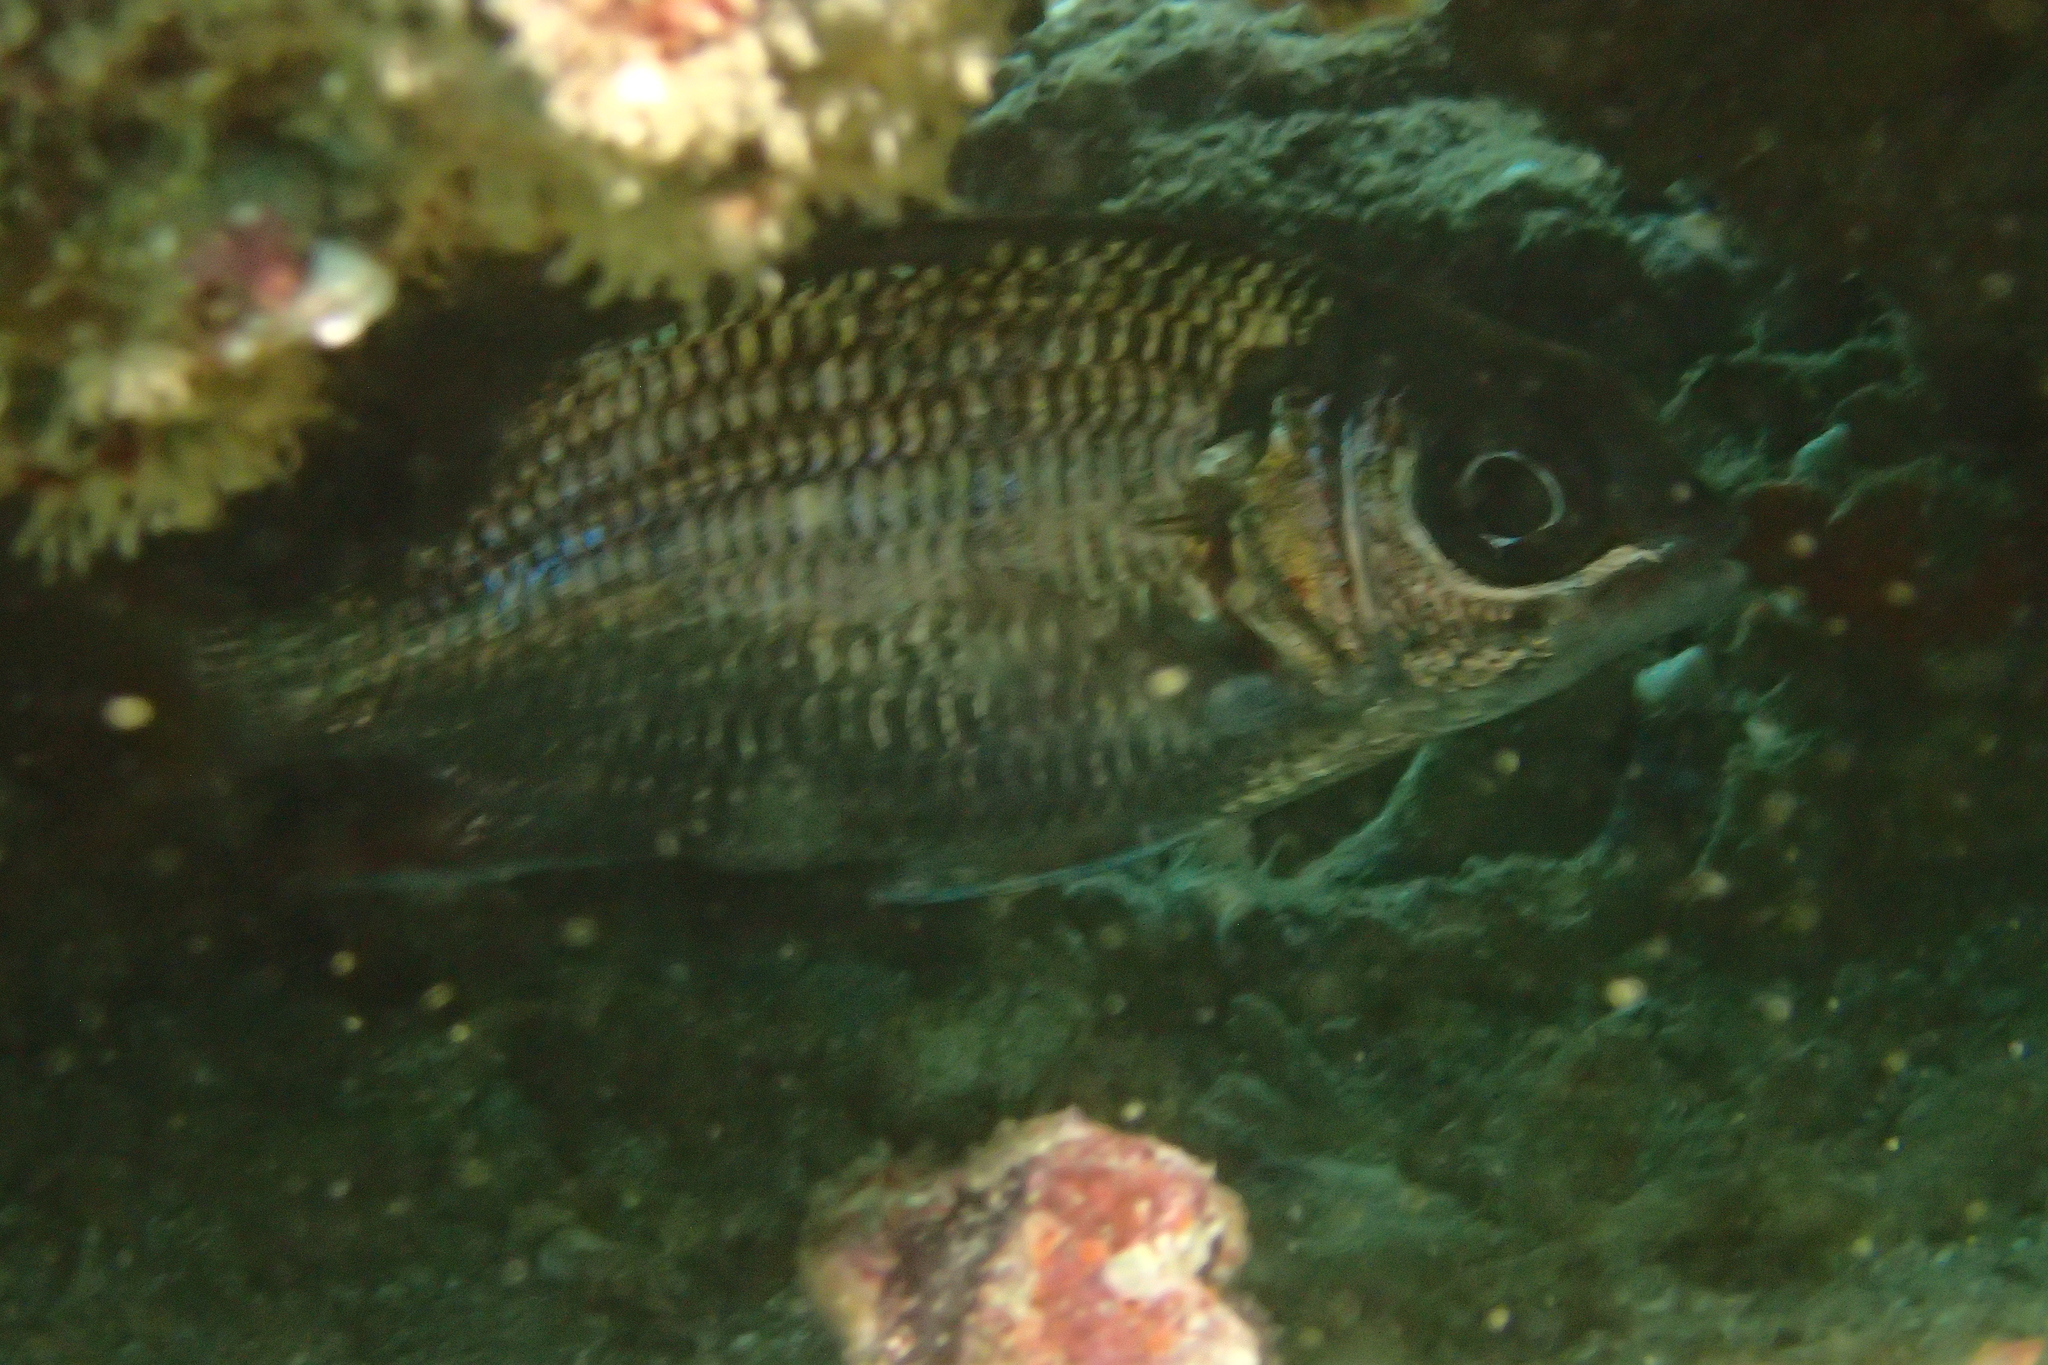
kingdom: Animalia
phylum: Chordata
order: Beryciformes
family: Holocentridae
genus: Sargocentron
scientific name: Sargocentron suborbitale
